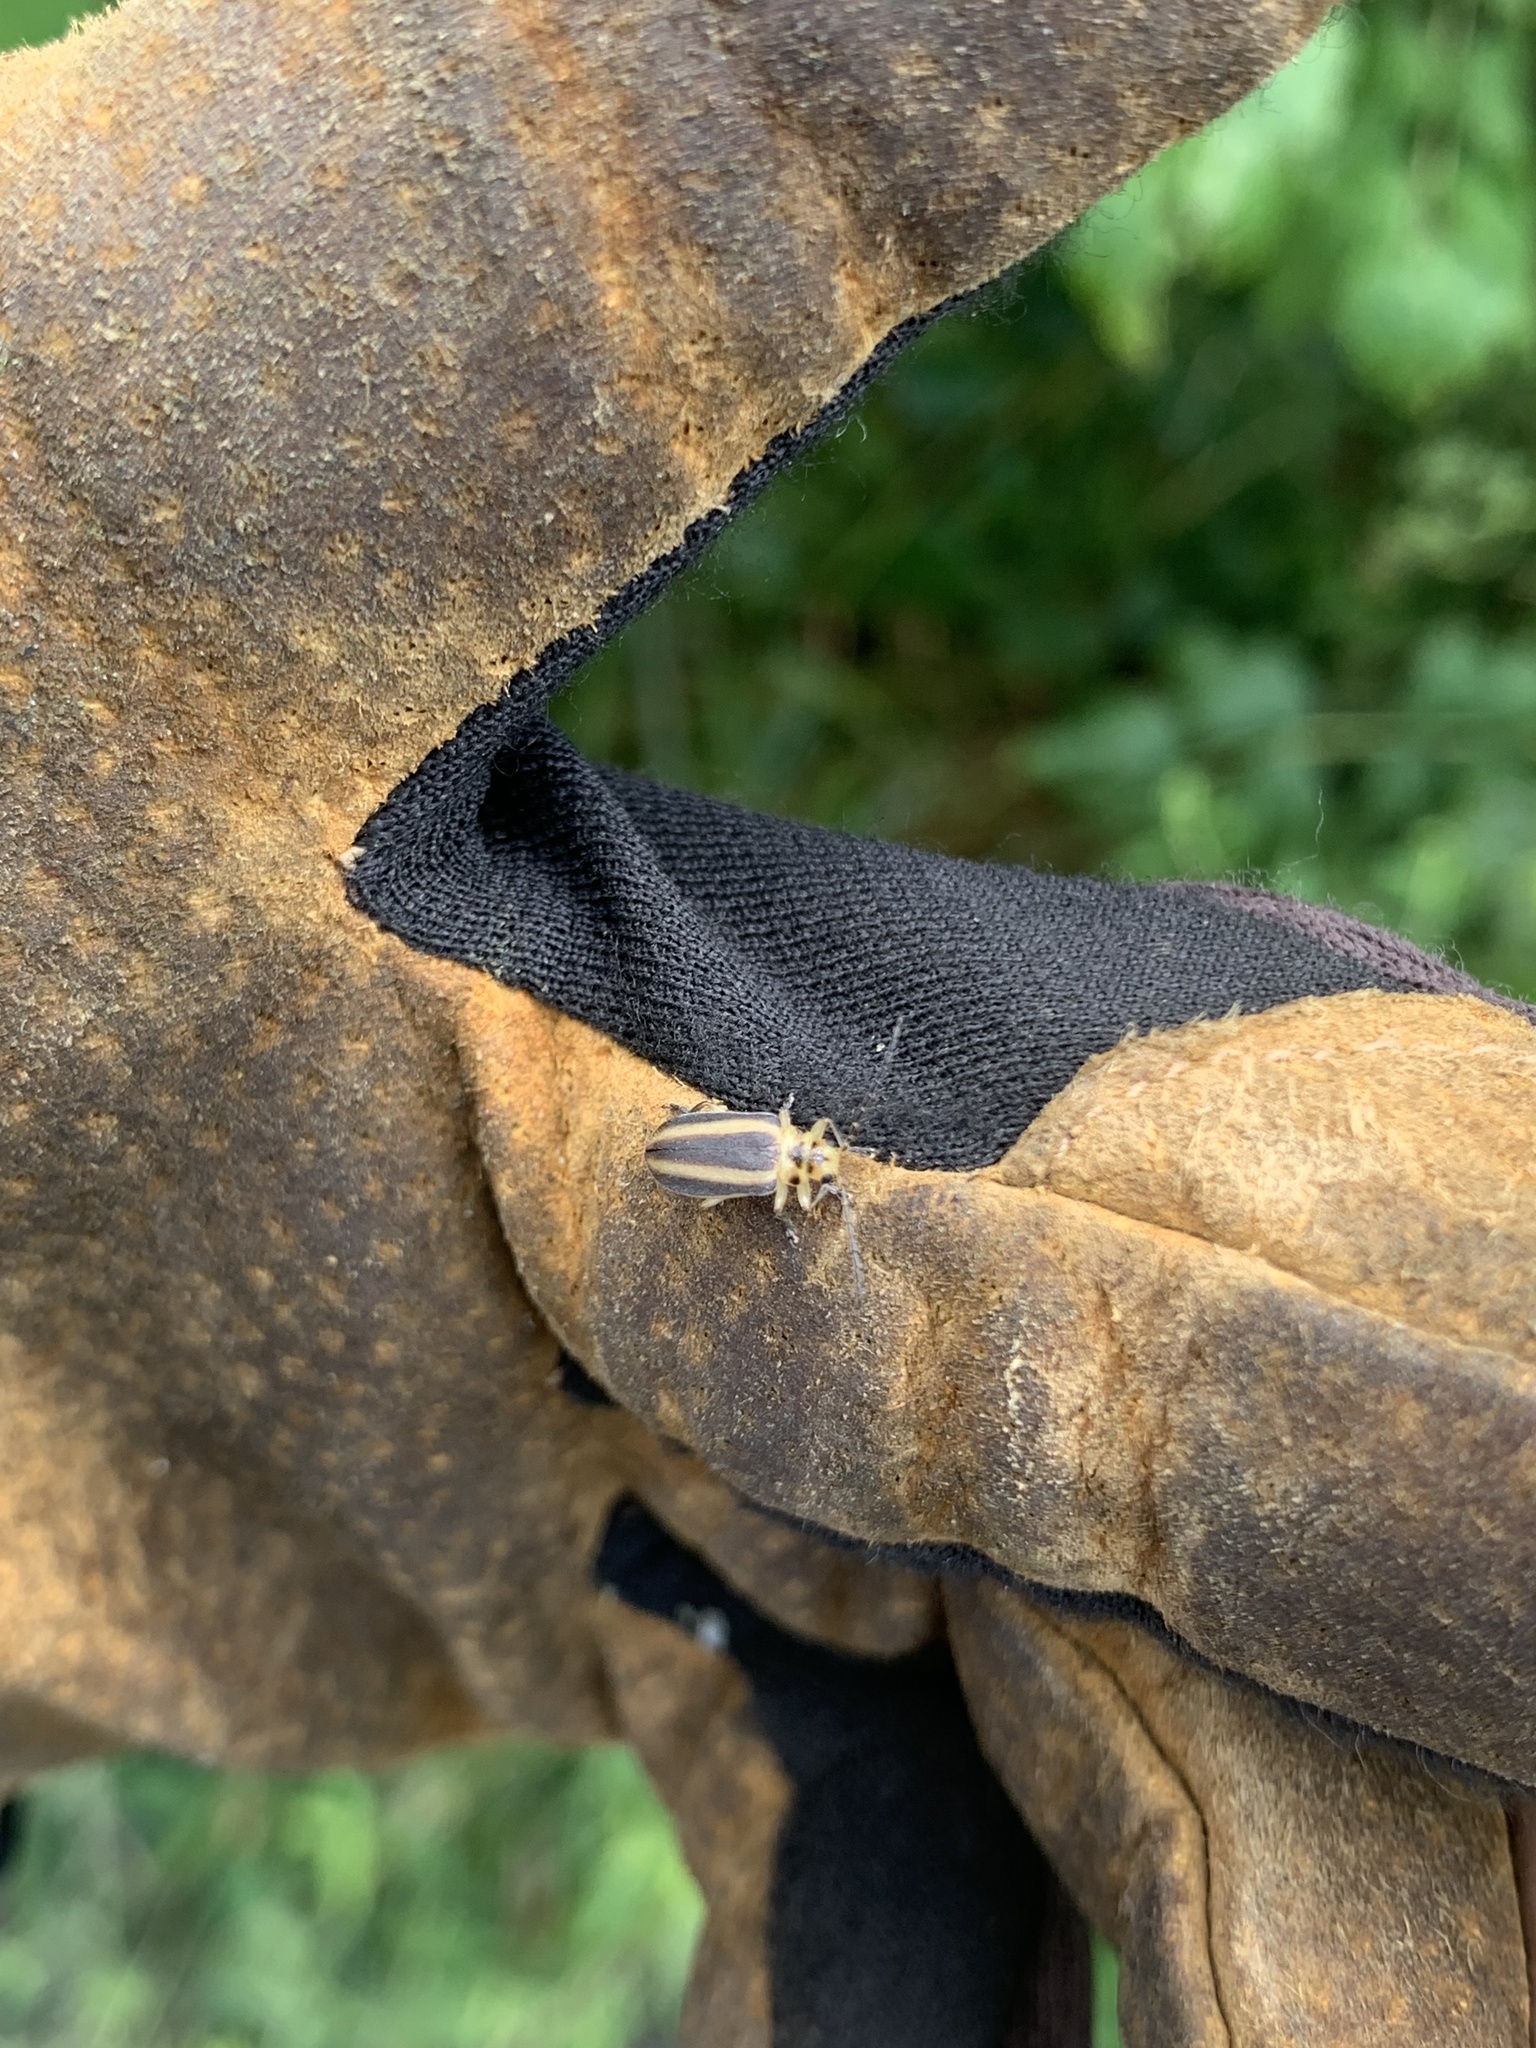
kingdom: Animalia
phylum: Arthropoda
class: Insecta
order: Coleoptera
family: Chrysomelidae
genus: Derospidea
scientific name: Derospidea brevicollis
